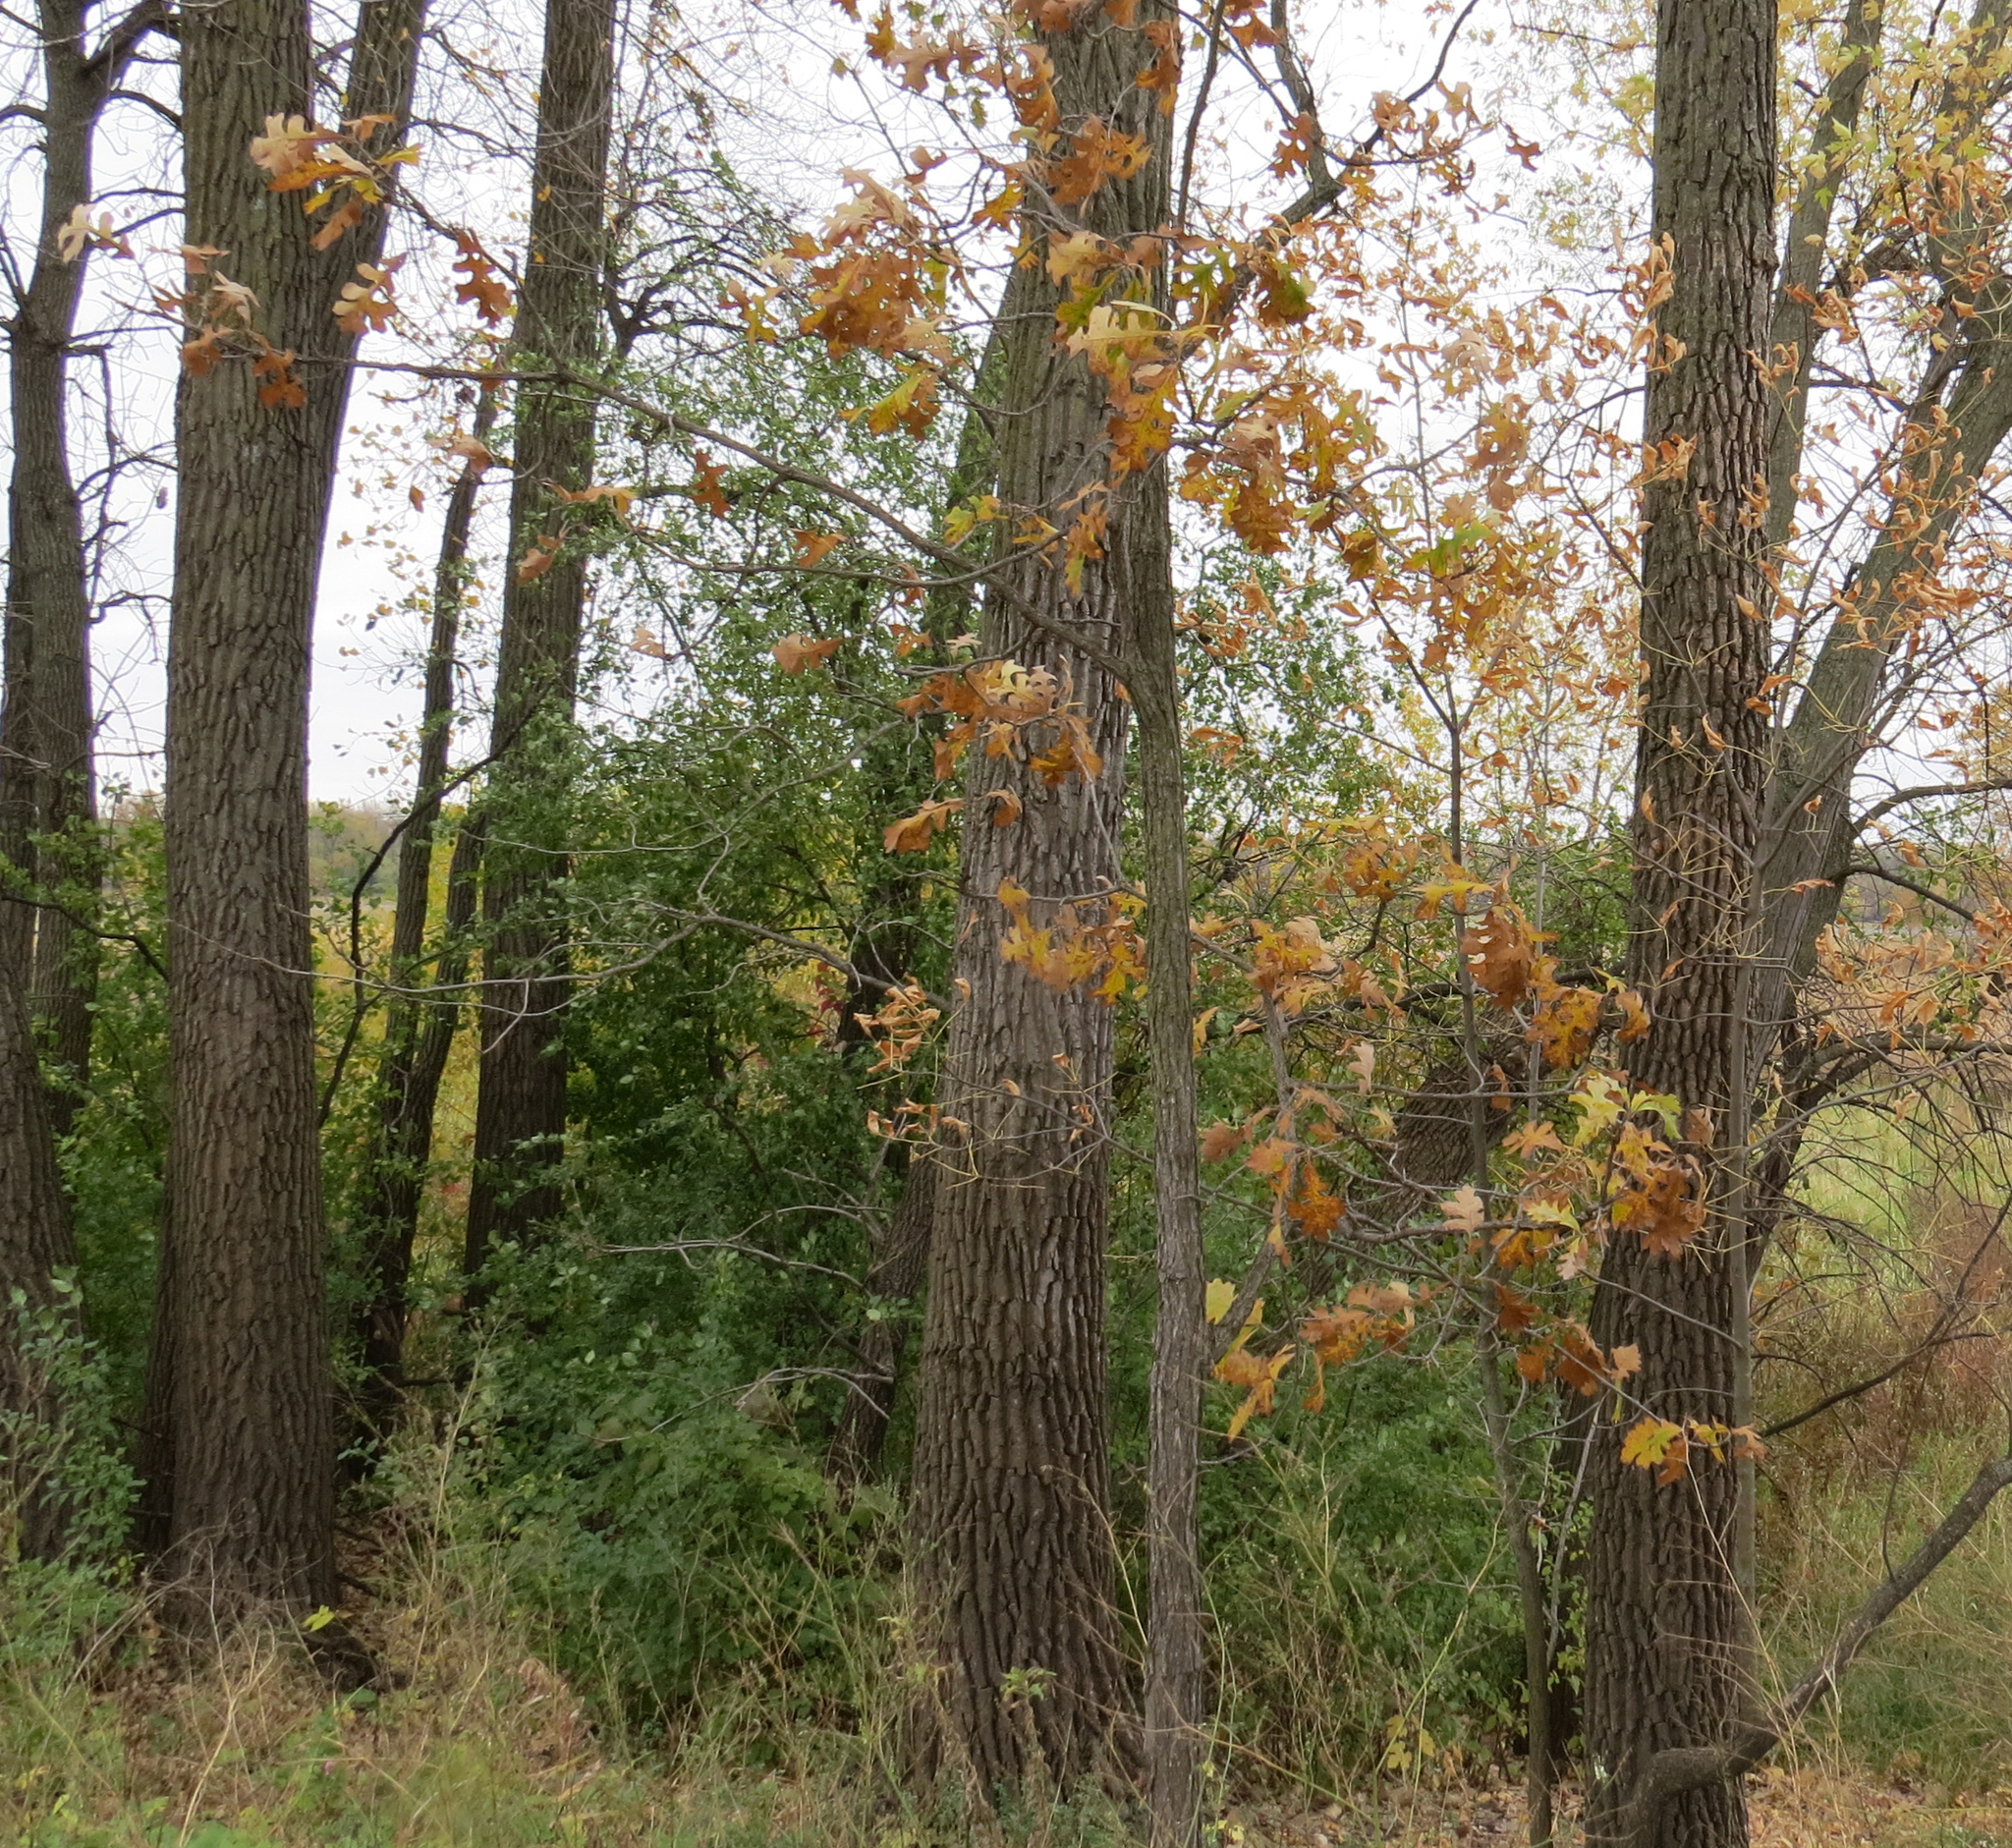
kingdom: Plantae
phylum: Tracheophyta
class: Magnoliopsida
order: Fagales
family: Fagaceae
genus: Quercus
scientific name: Quercus macrocarpa
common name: Bur oak
